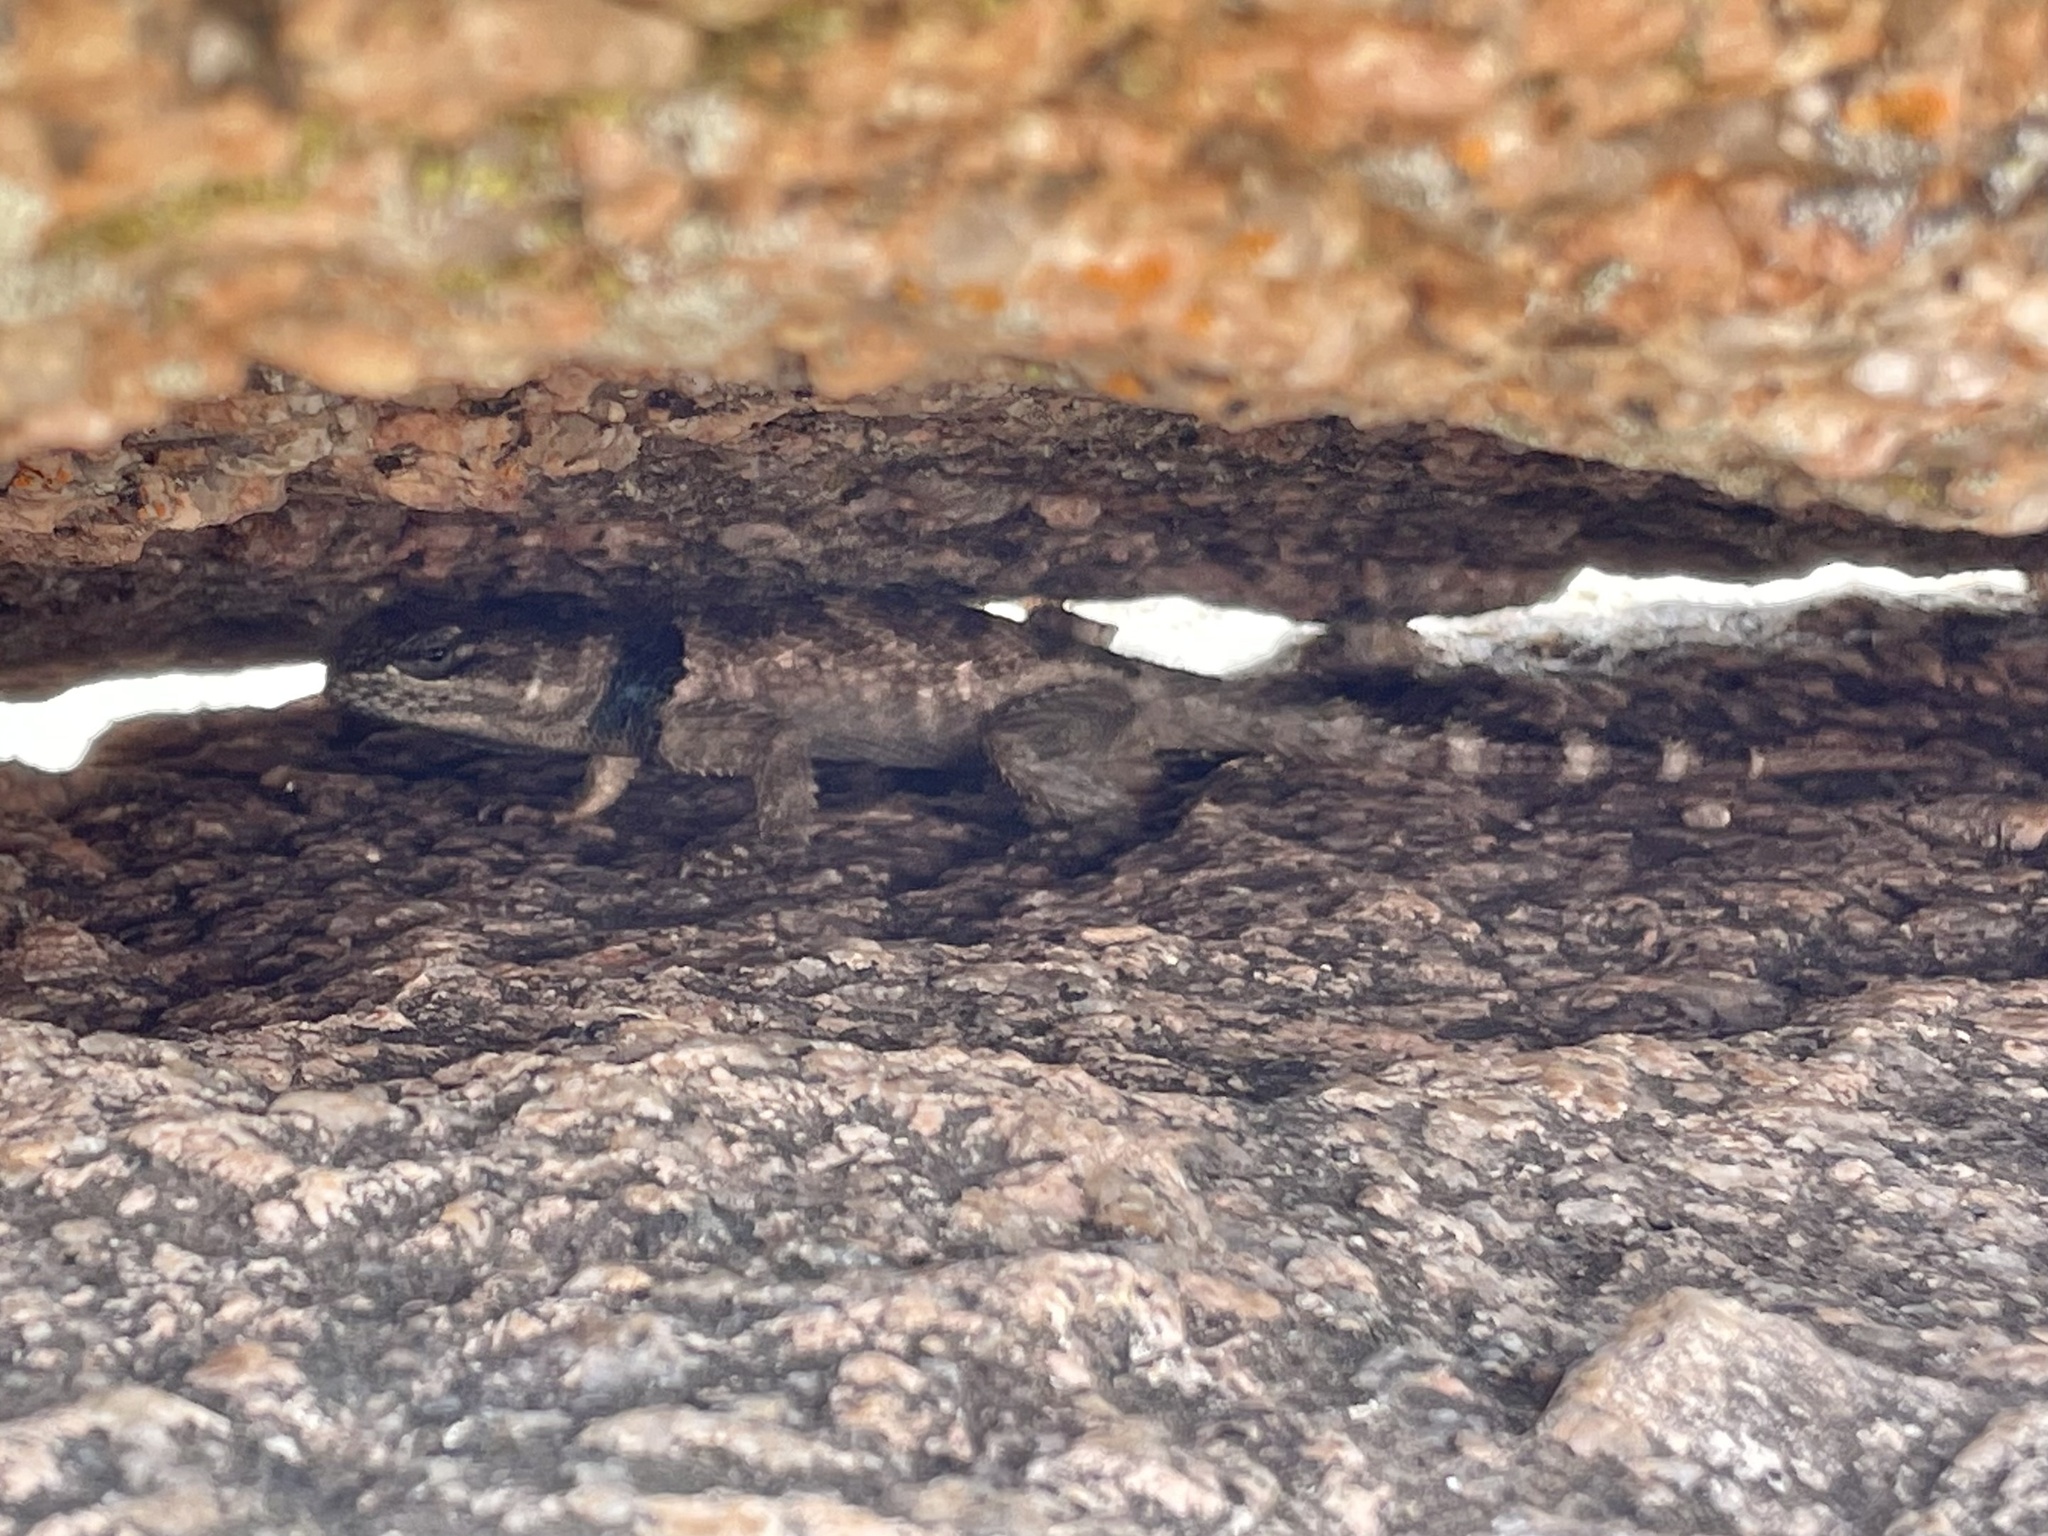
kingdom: Animalia
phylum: Chordata
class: Squamata
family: Phrynosomatidae
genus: Sceloporus
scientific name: Sceloporus poinsettii
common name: Crevice spiny lizard
